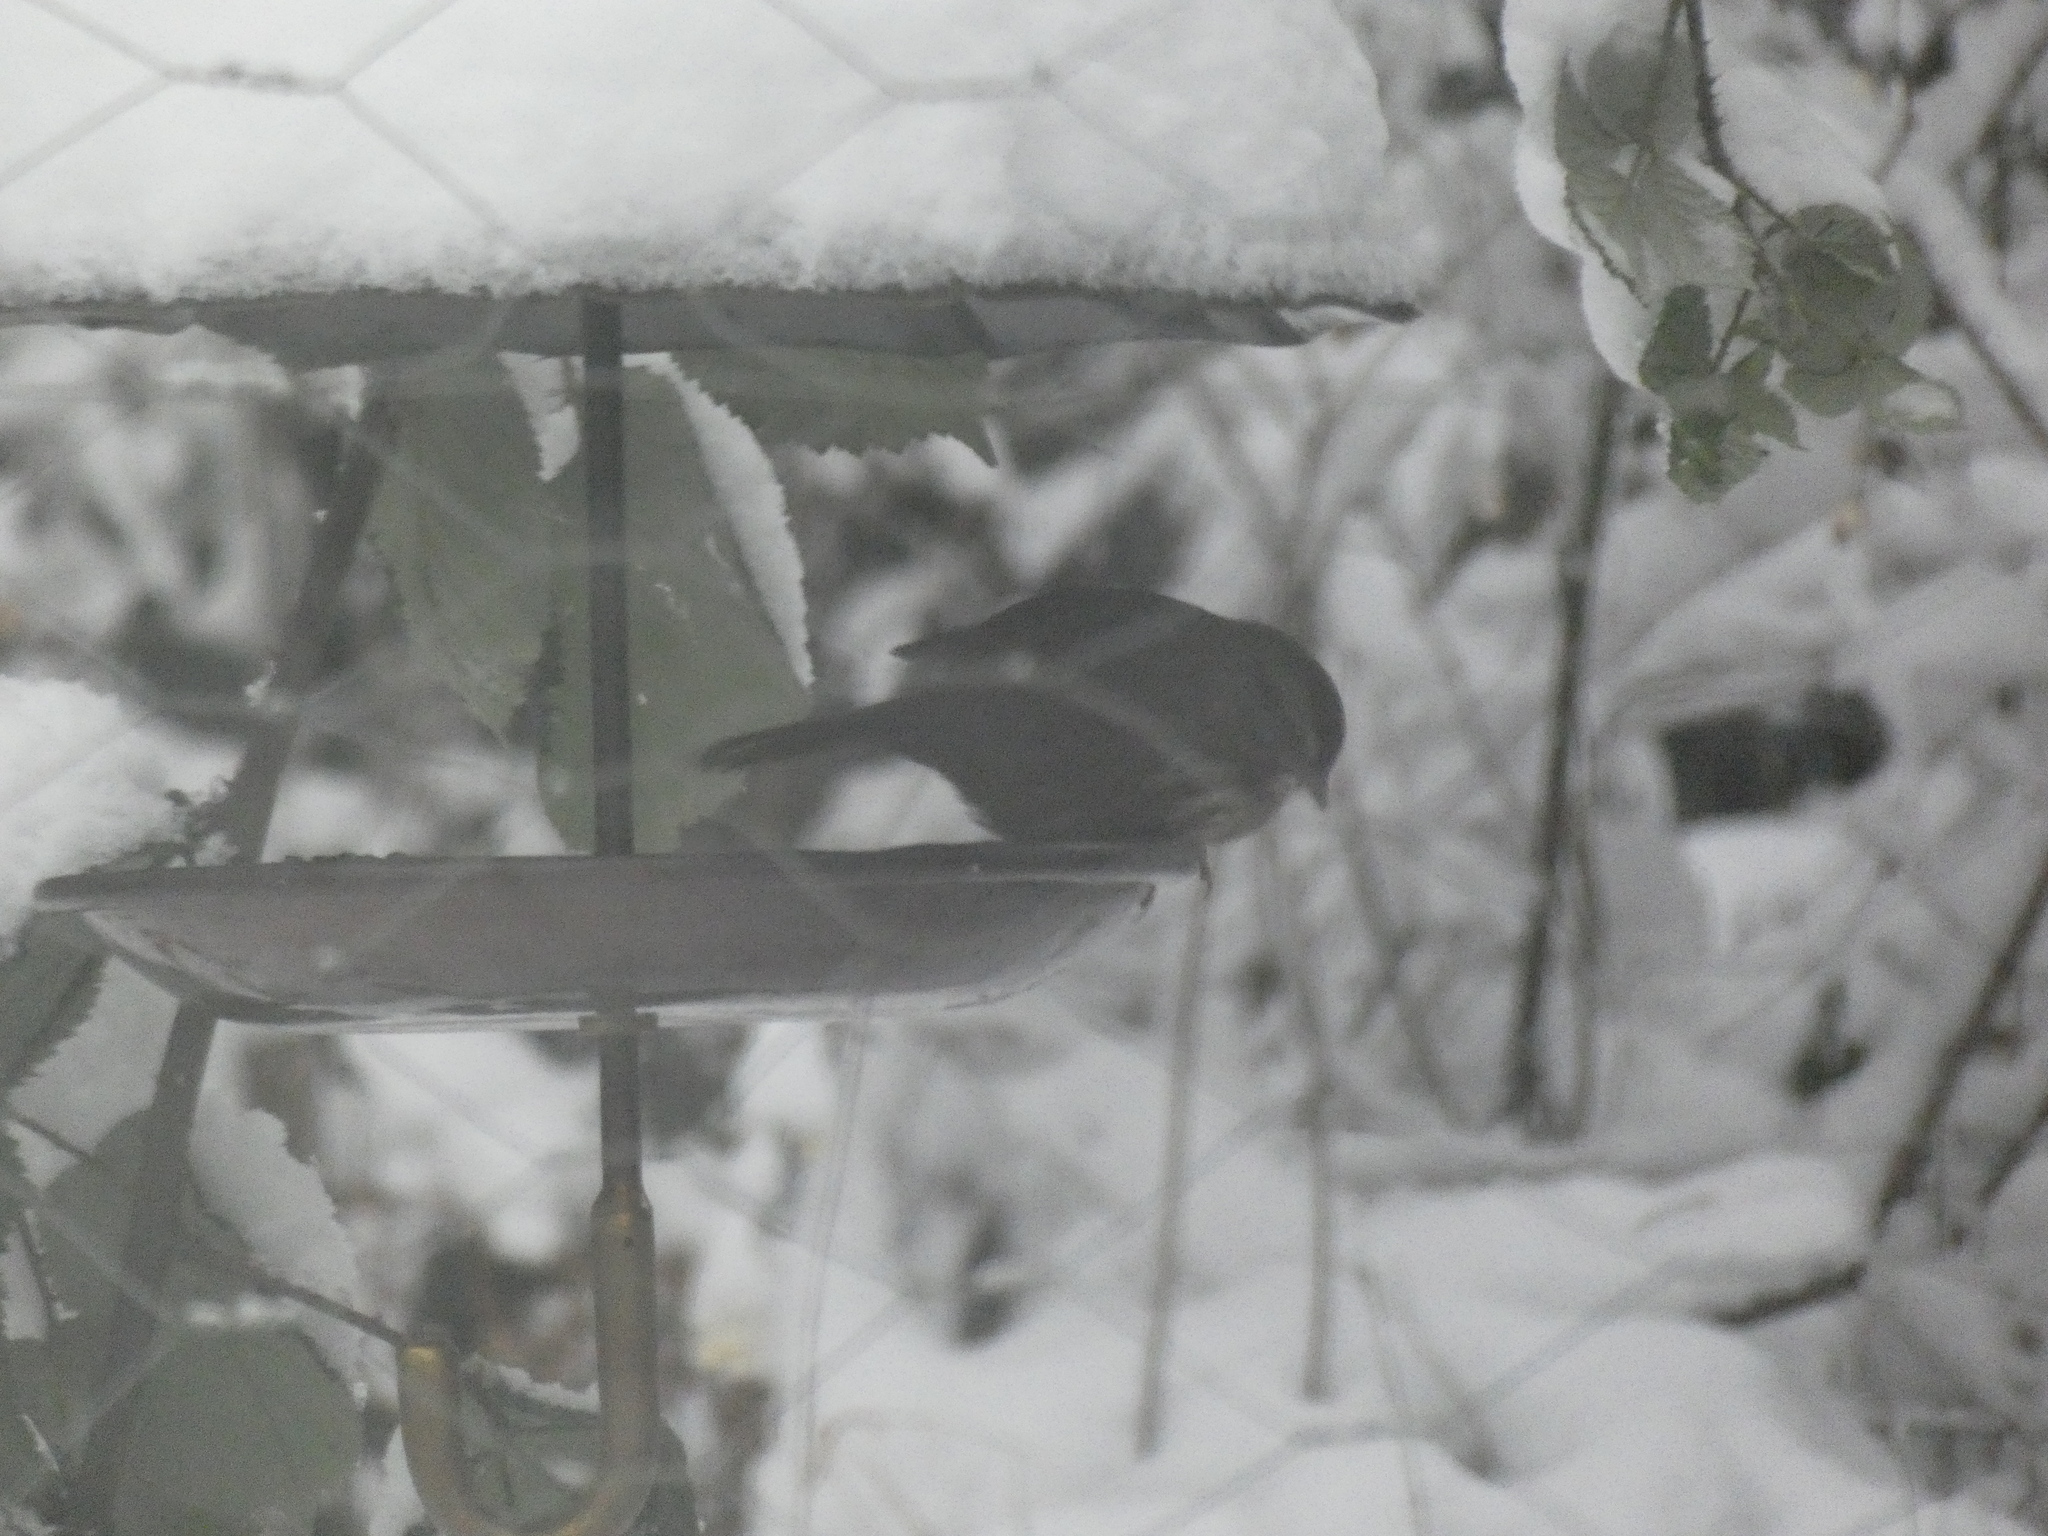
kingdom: Animalia
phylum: Chordata
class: Aves
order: Passeriformes
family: Passerellidae
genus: Melospiza
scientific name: Melospiza melodia
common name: Song sparrow
